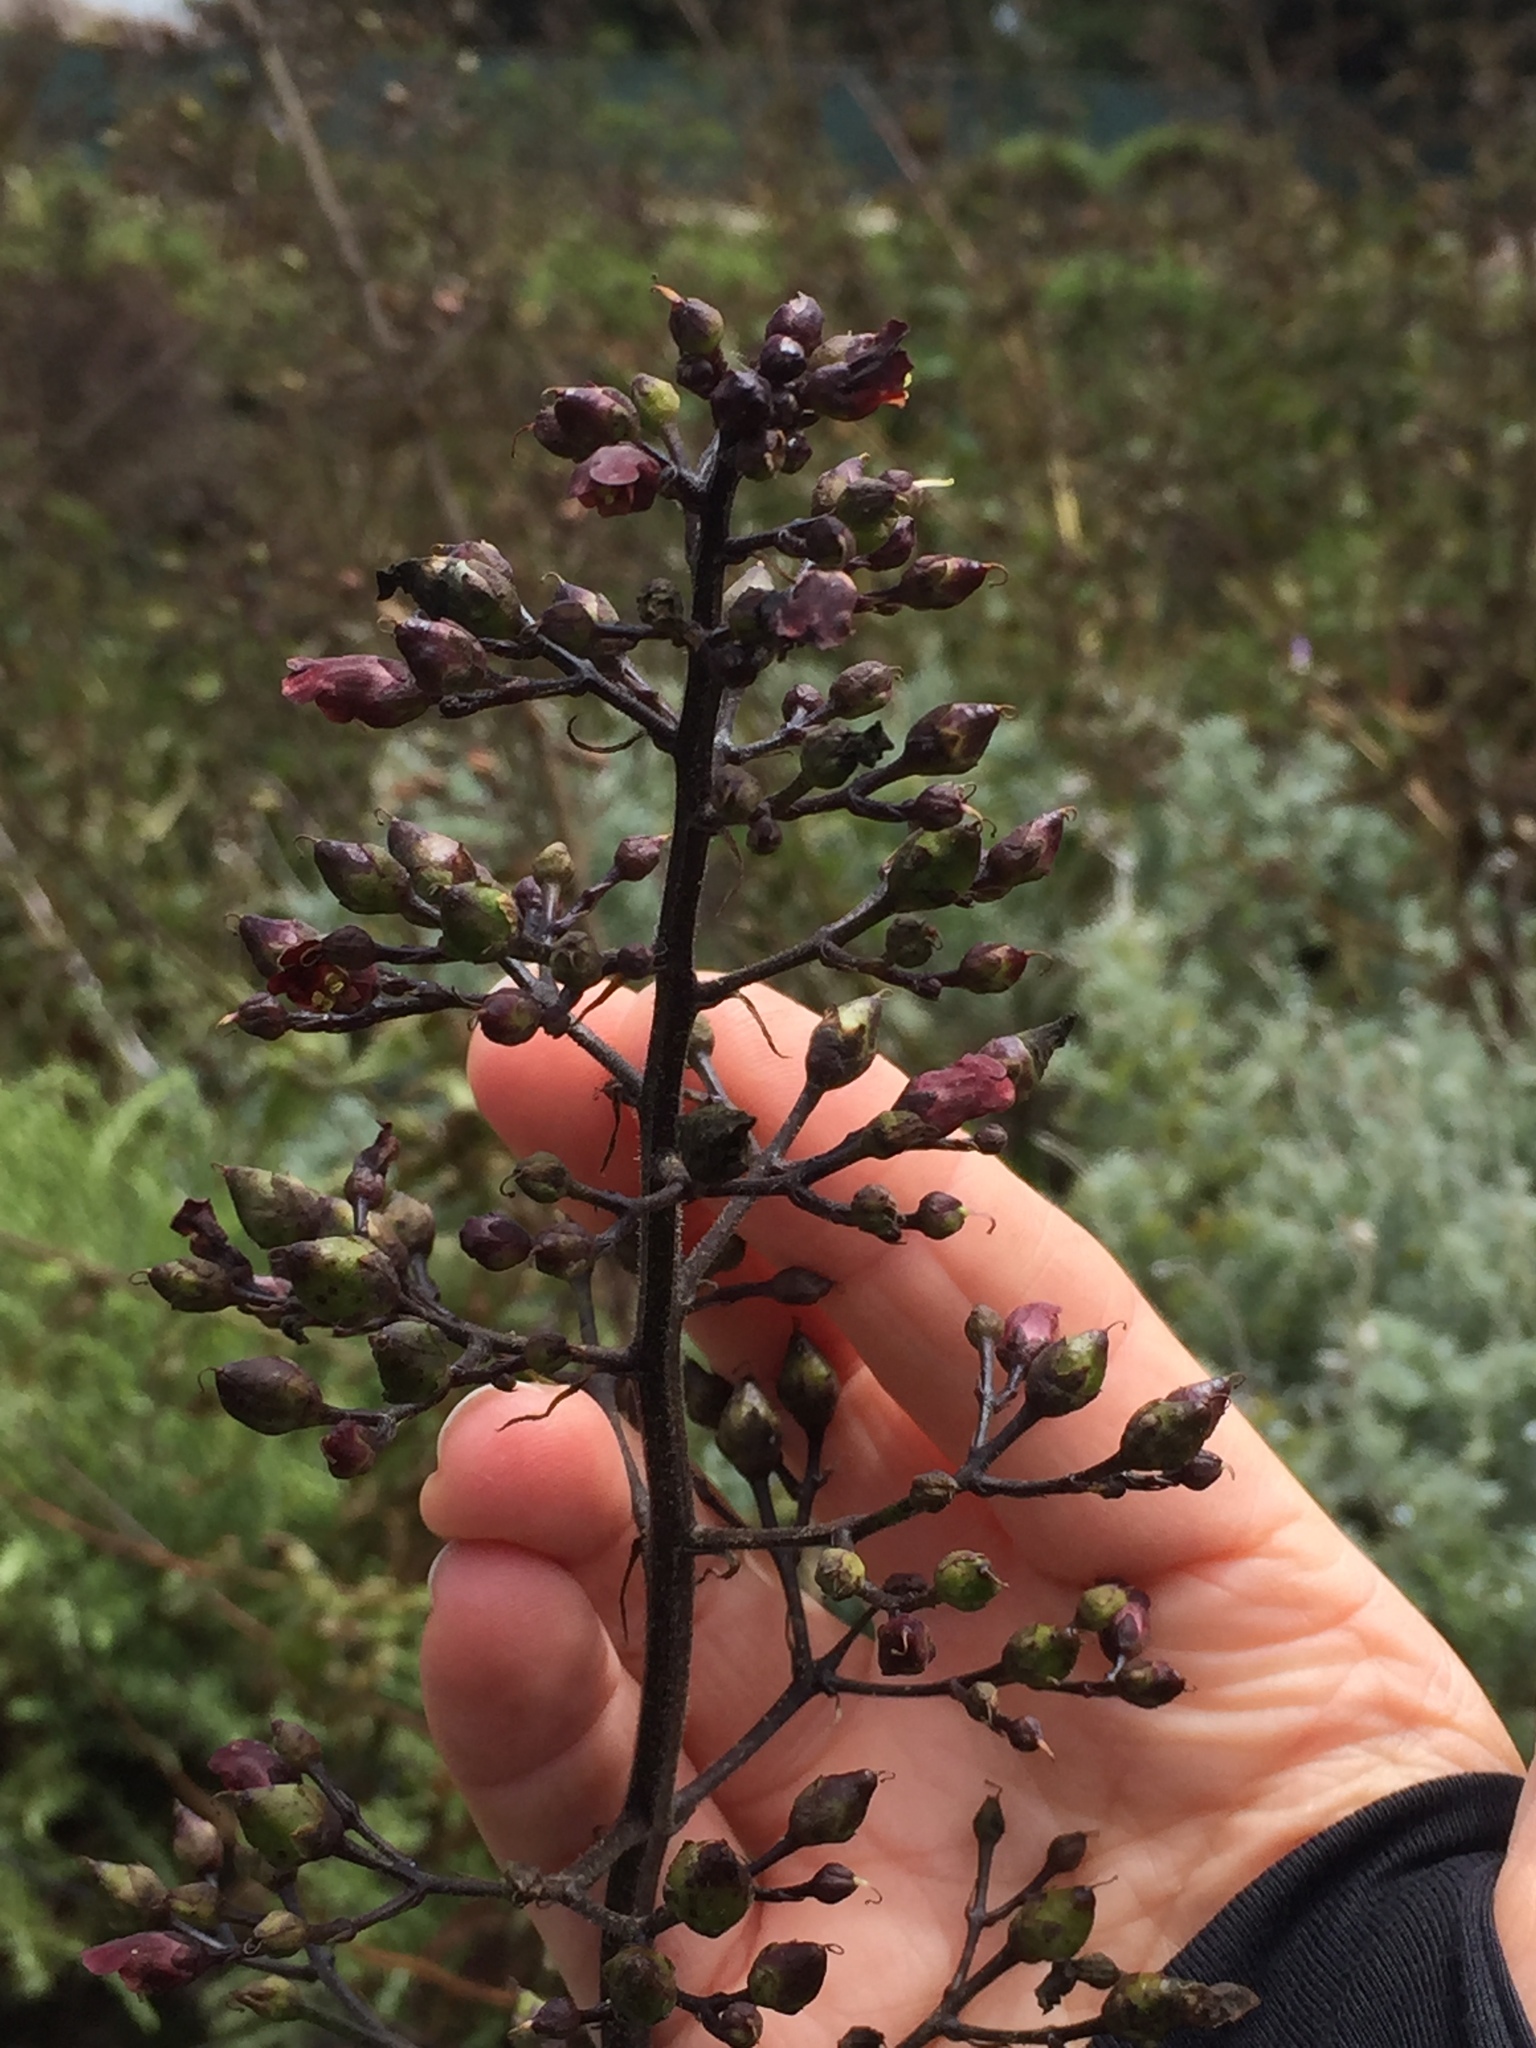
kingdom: Plantae
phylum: Tracheophyta
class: Magnoliopsida
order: Lamiales
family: Scrophulariaceae
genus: Scrophularia
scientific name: Scrophularia californica
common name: California figwort
